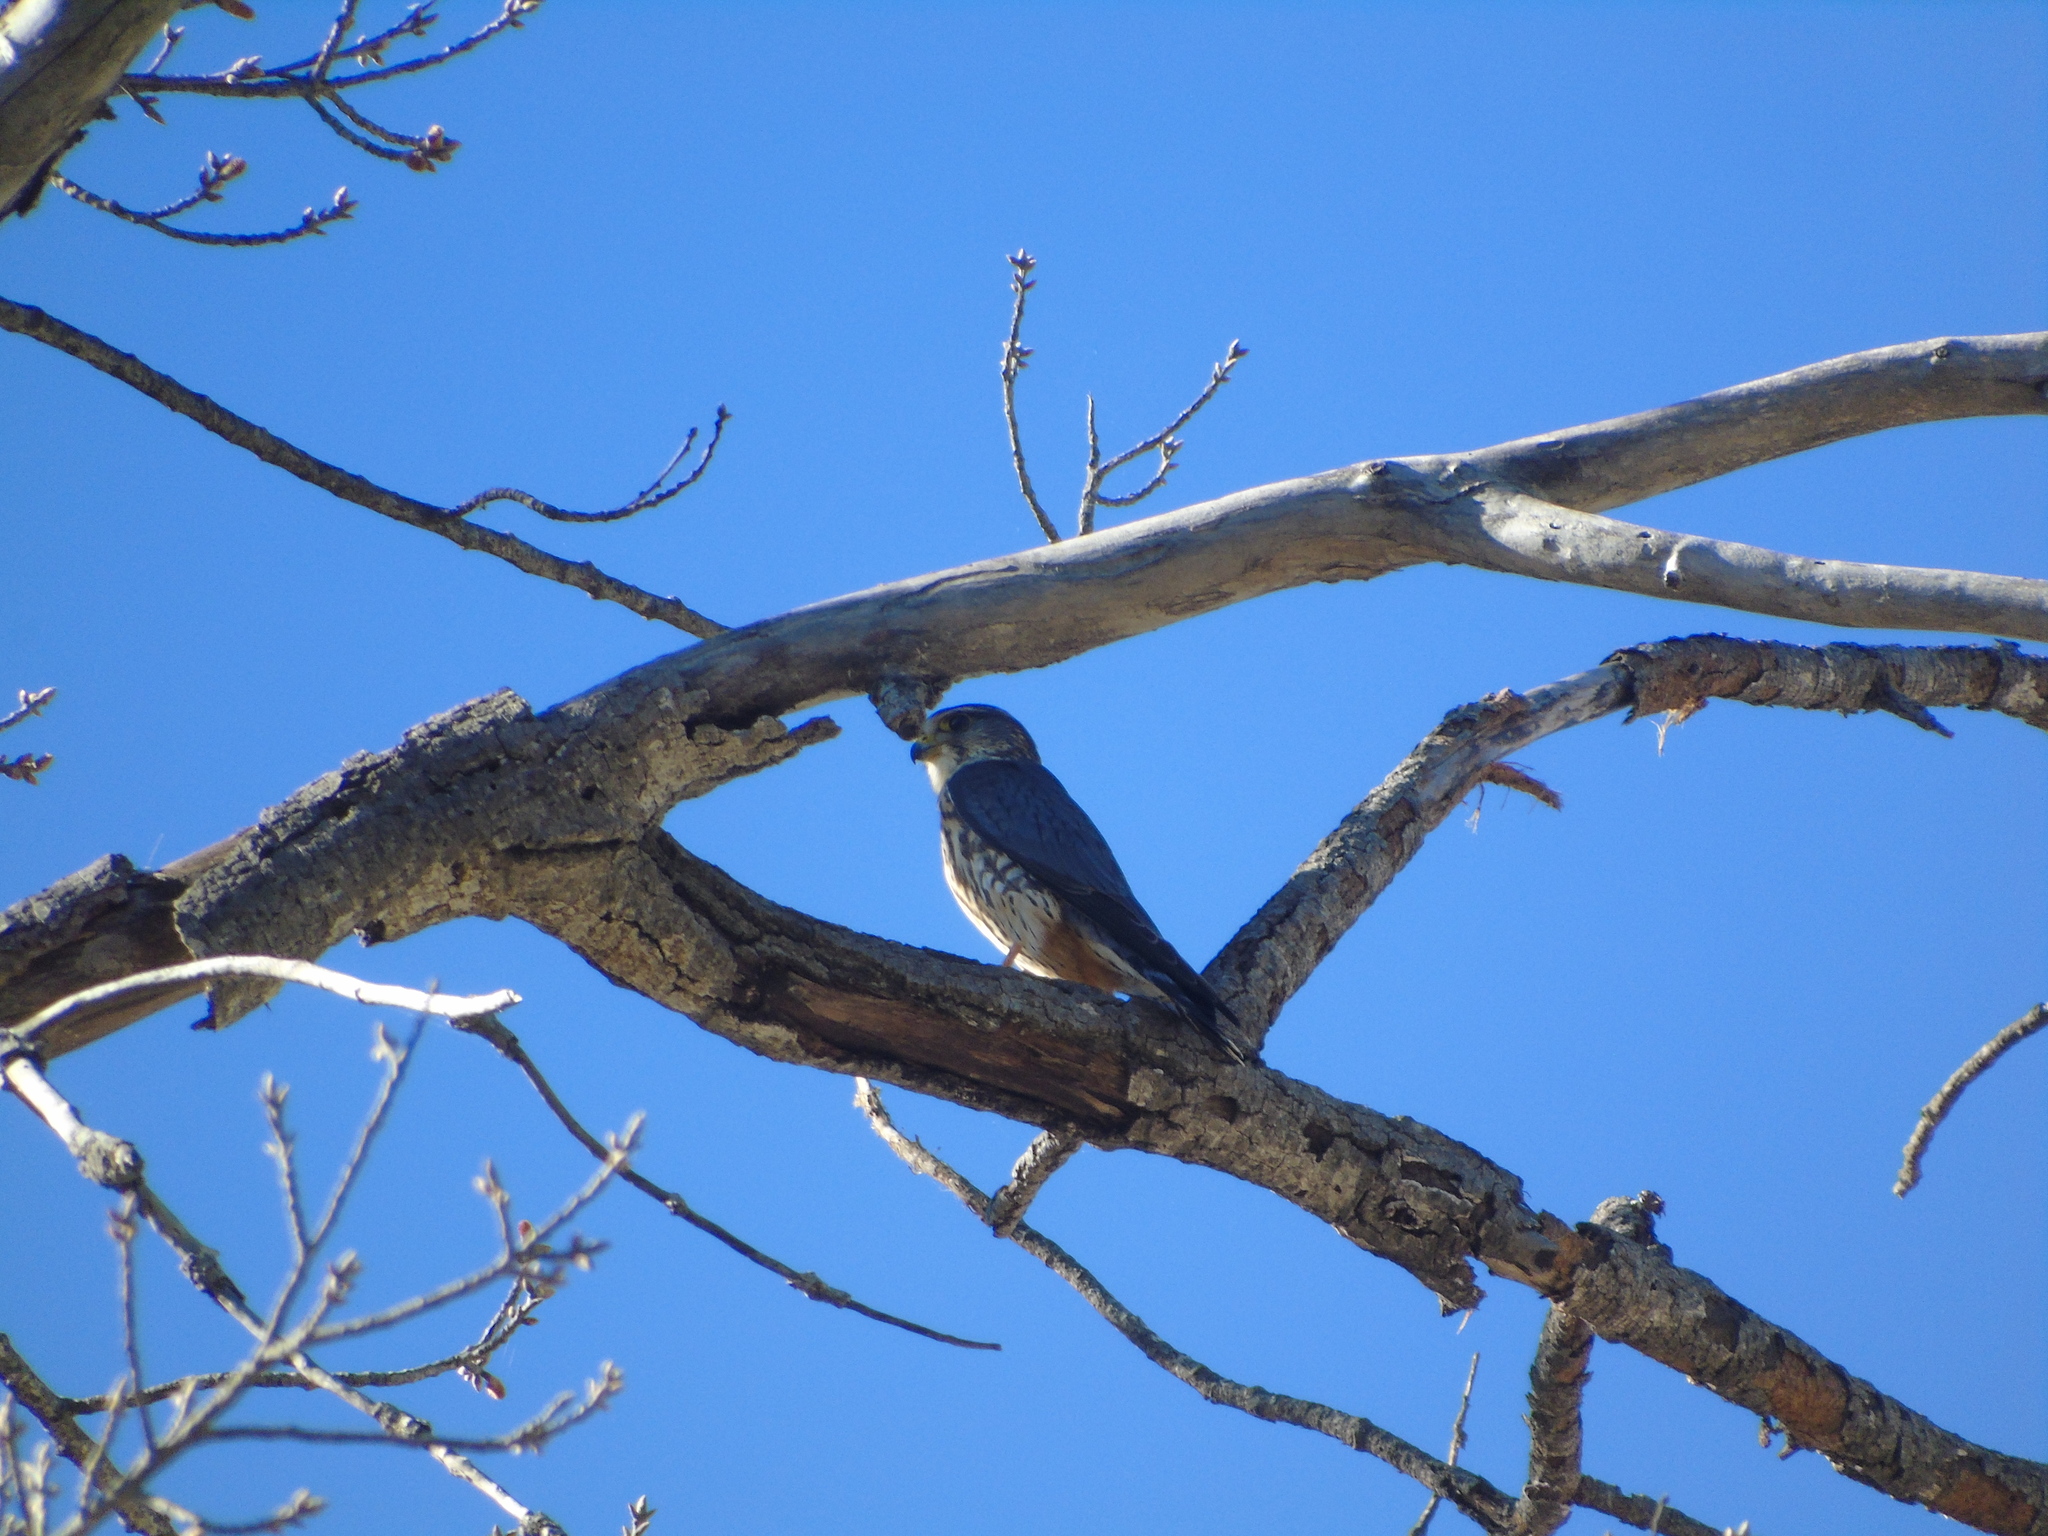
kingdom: Animalia
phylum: Chordata
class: Aves
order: Falconiformes
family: Falconidae
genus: Falco
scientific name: Falco columbarius
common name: Merlin
